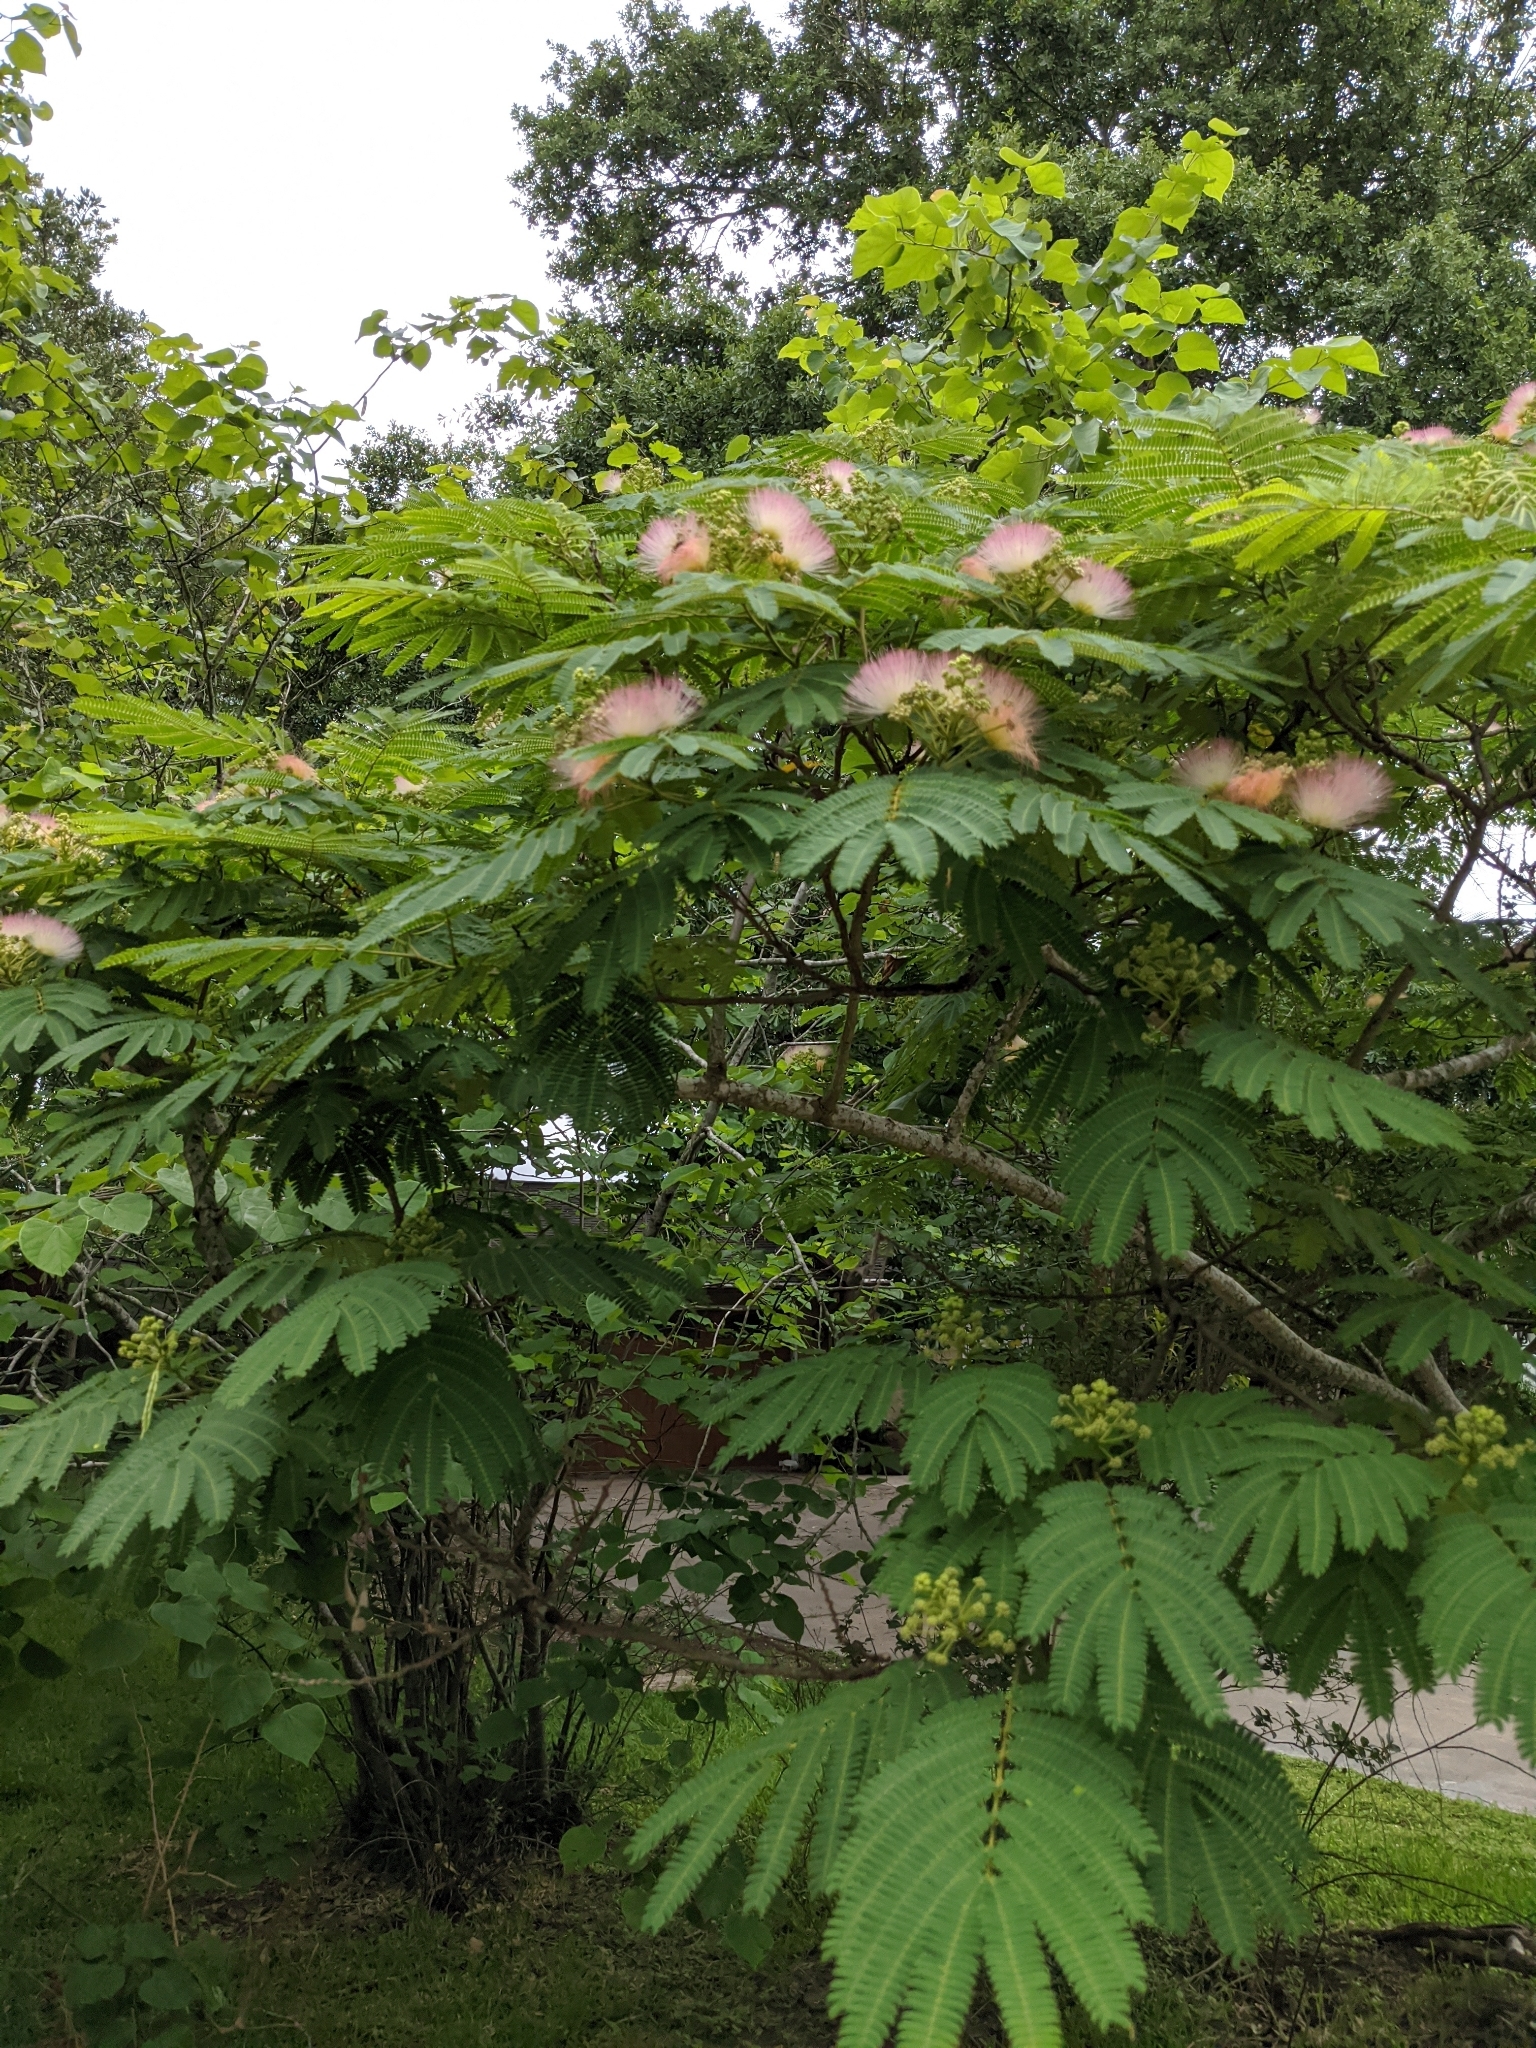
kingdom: Plantae
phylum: Tracheophyta
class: Magnoliopsida
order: Fabales
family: Fabaceae
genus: Albizia
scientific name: Albizia julibrissin
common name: Silktree
